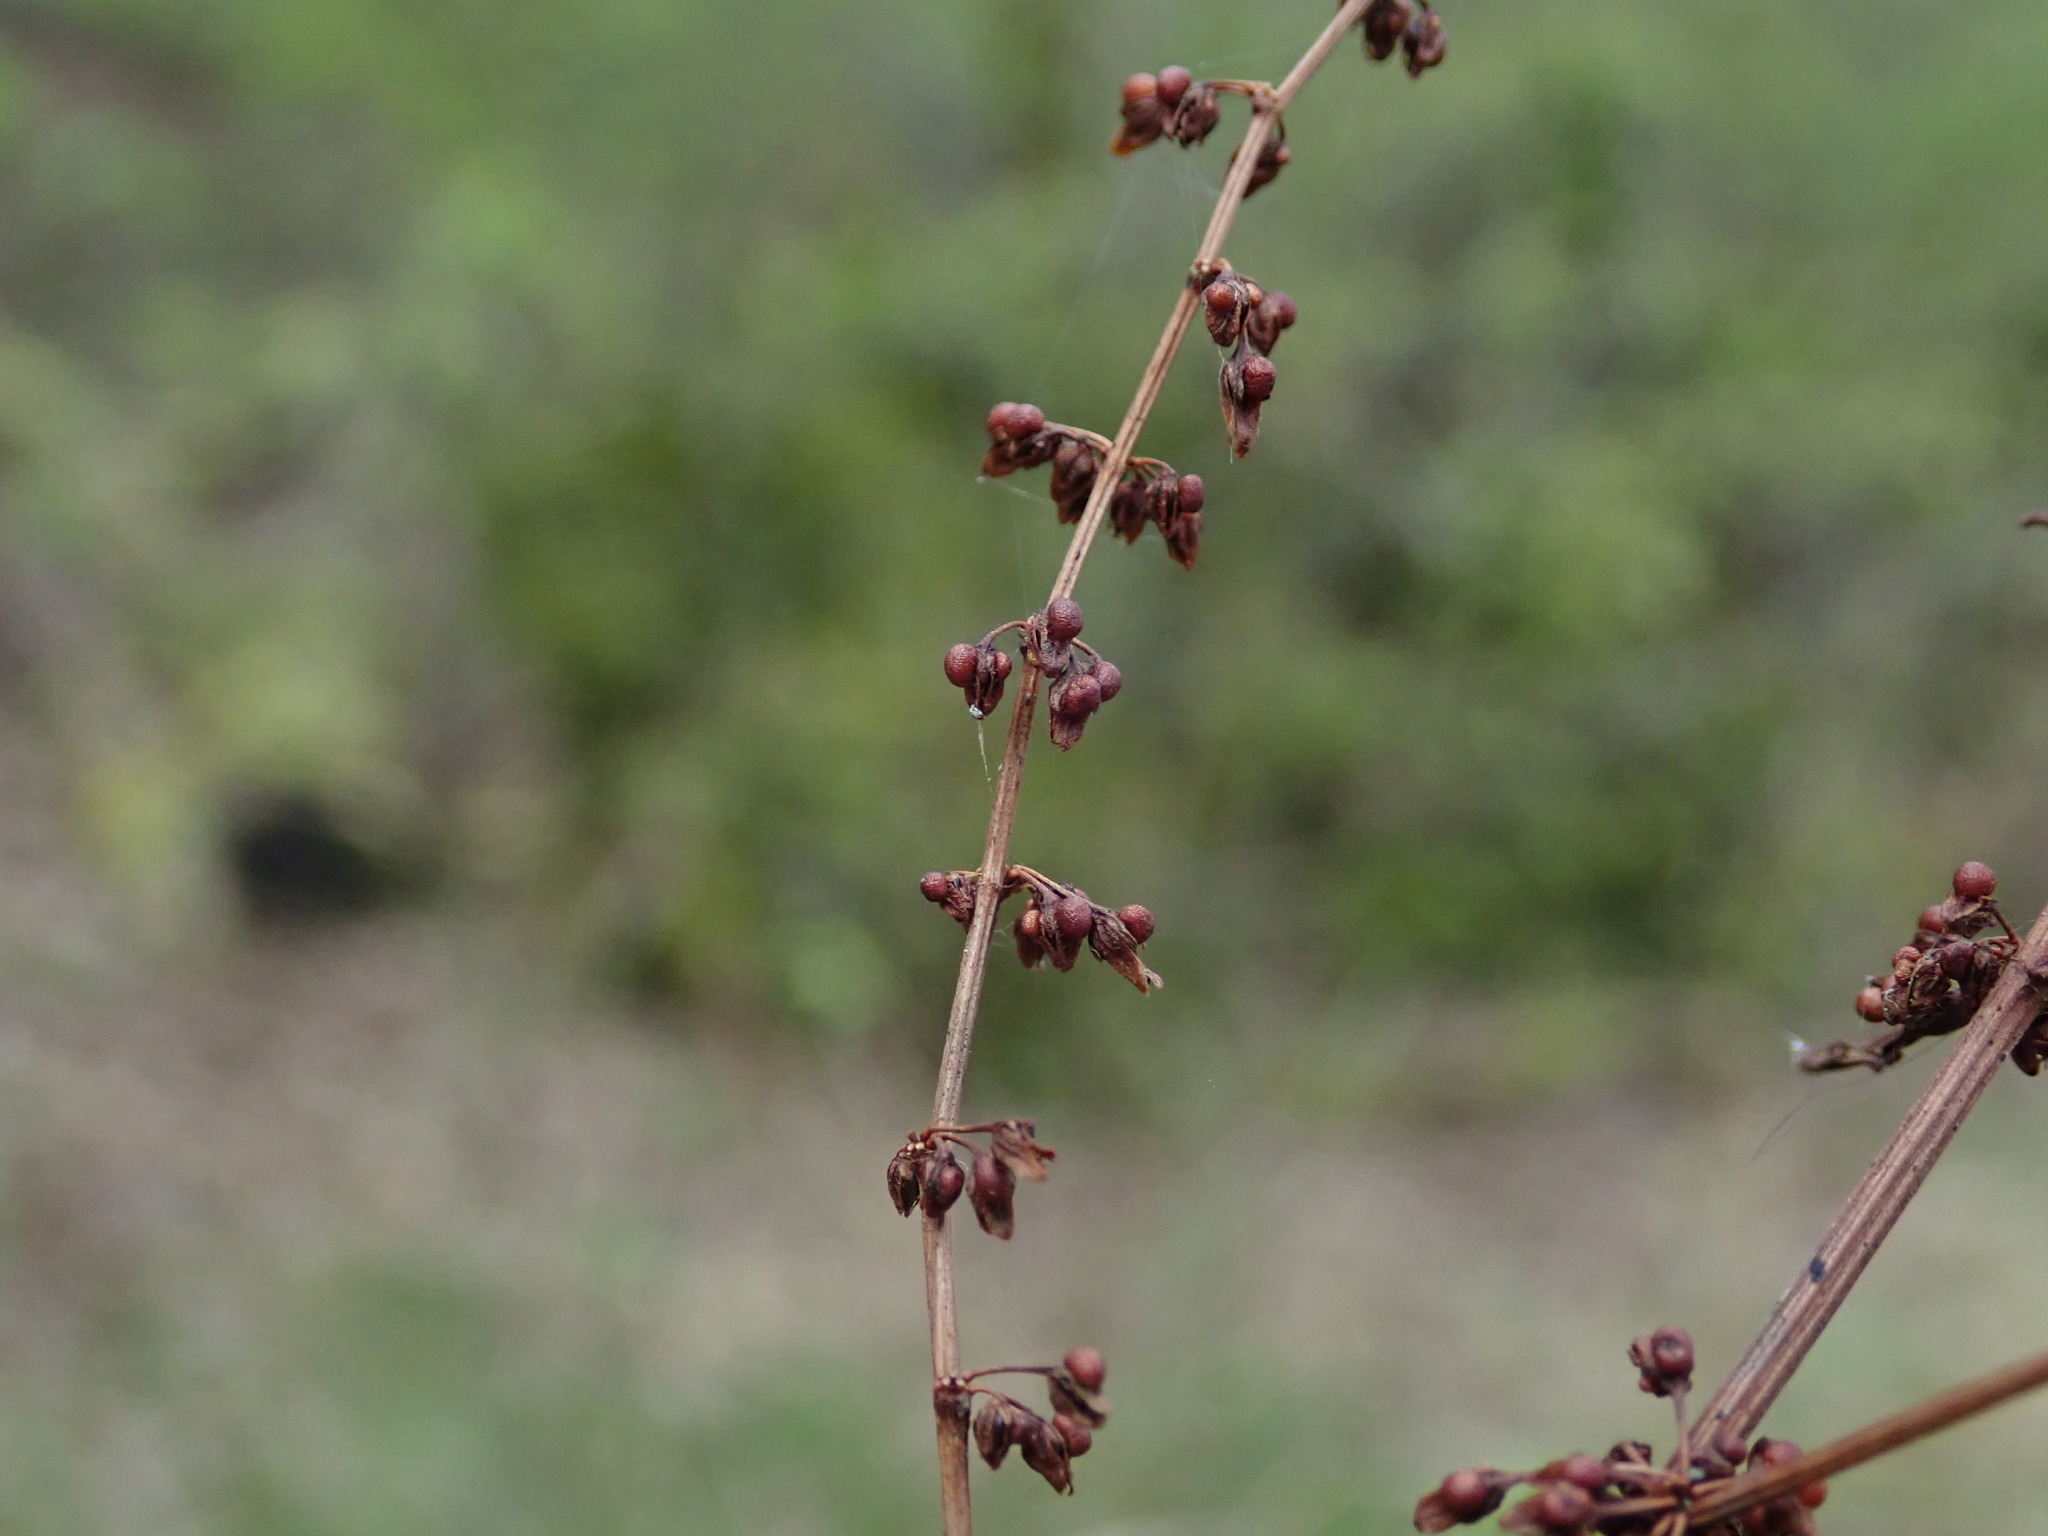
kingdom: Plantae
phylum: Tracheophyta
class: Magnoliopsida
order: Caryophyllales
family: Polygonaceae
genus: Rumex
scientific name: Rumex sanguineus
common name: Wood dock
